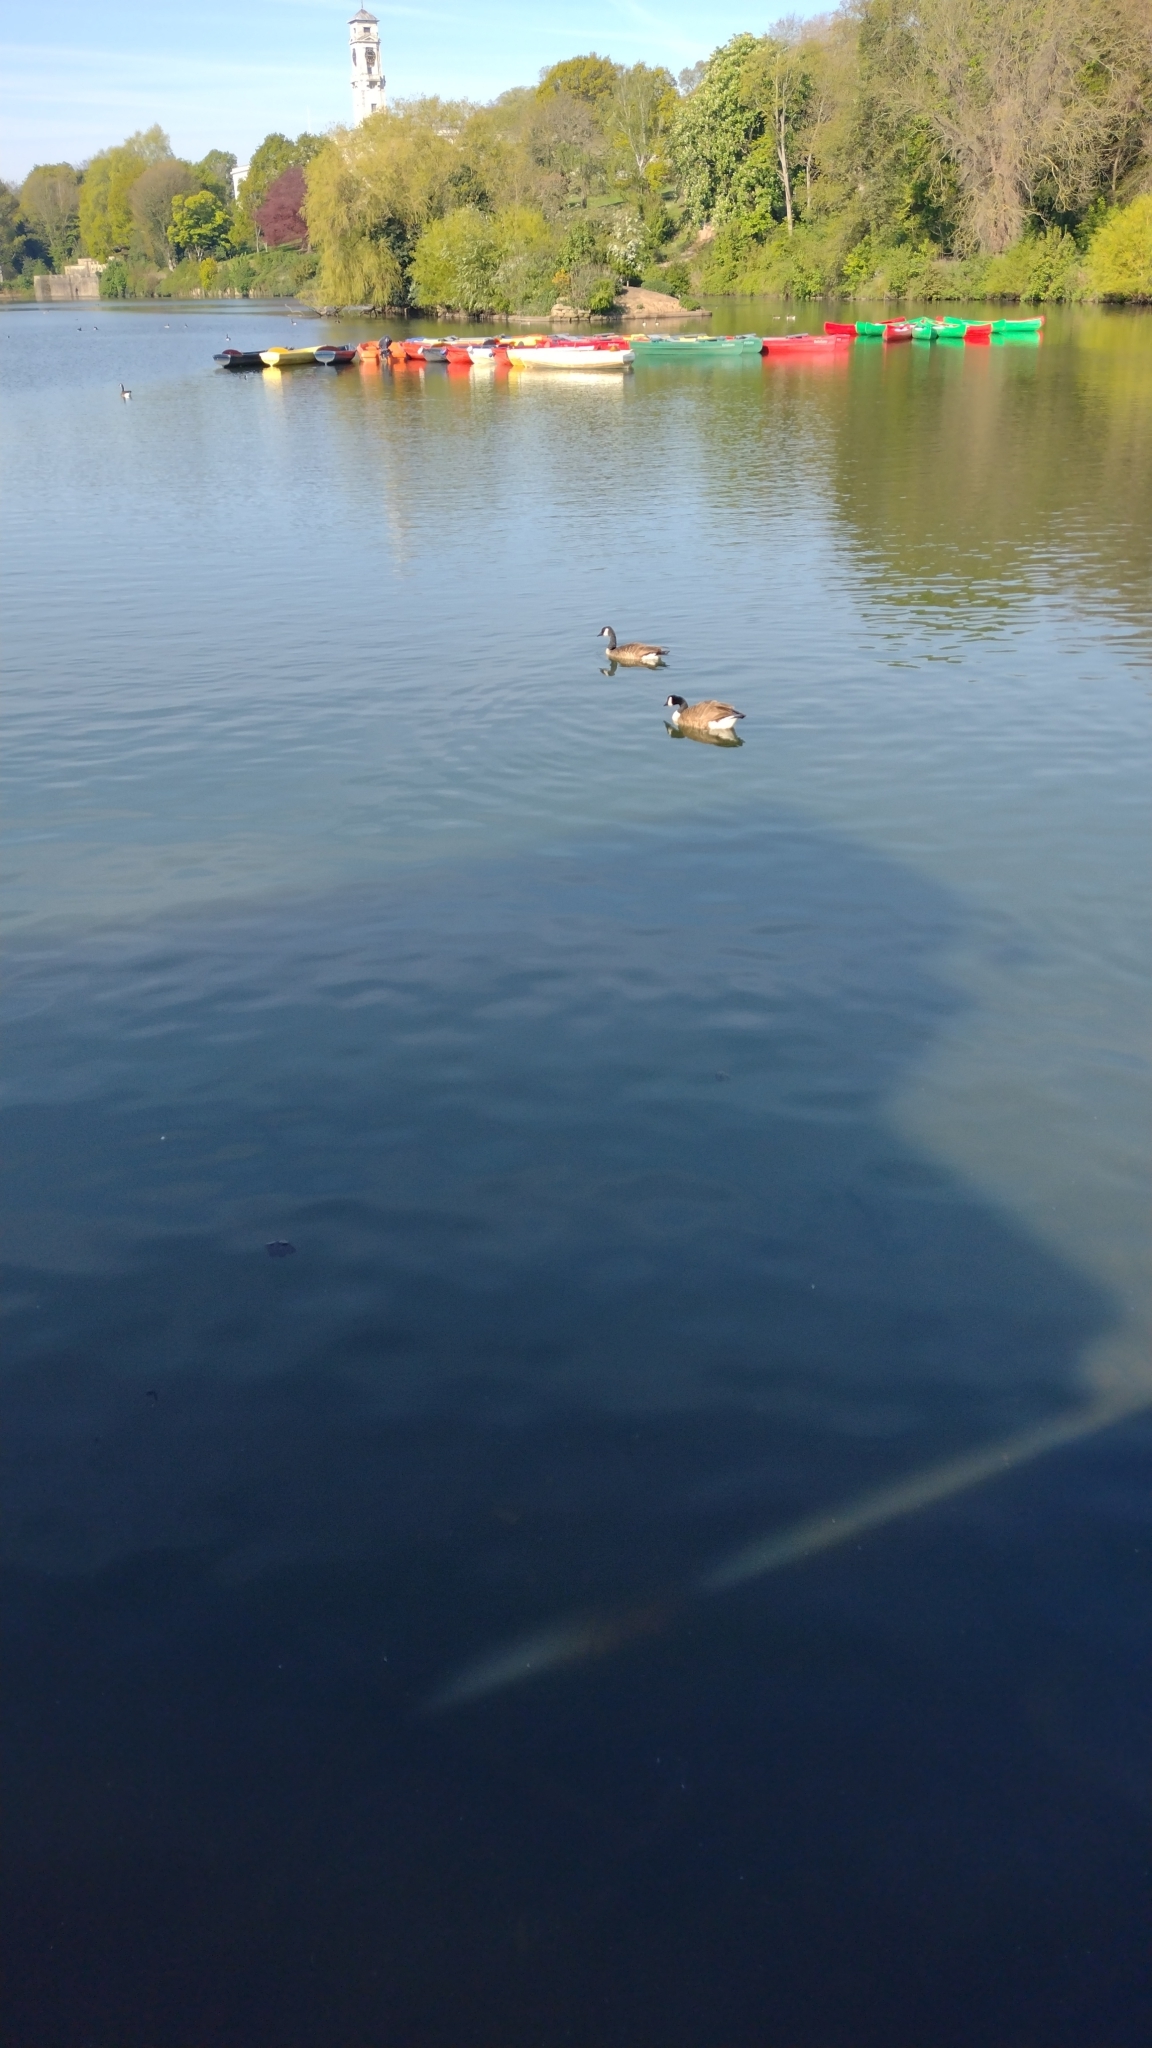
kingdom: Animalia
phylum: Chordata
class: Aves
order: Anseriformes
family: Anatidae
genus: Branta
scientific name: Branta canadensis
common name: Canada goose
